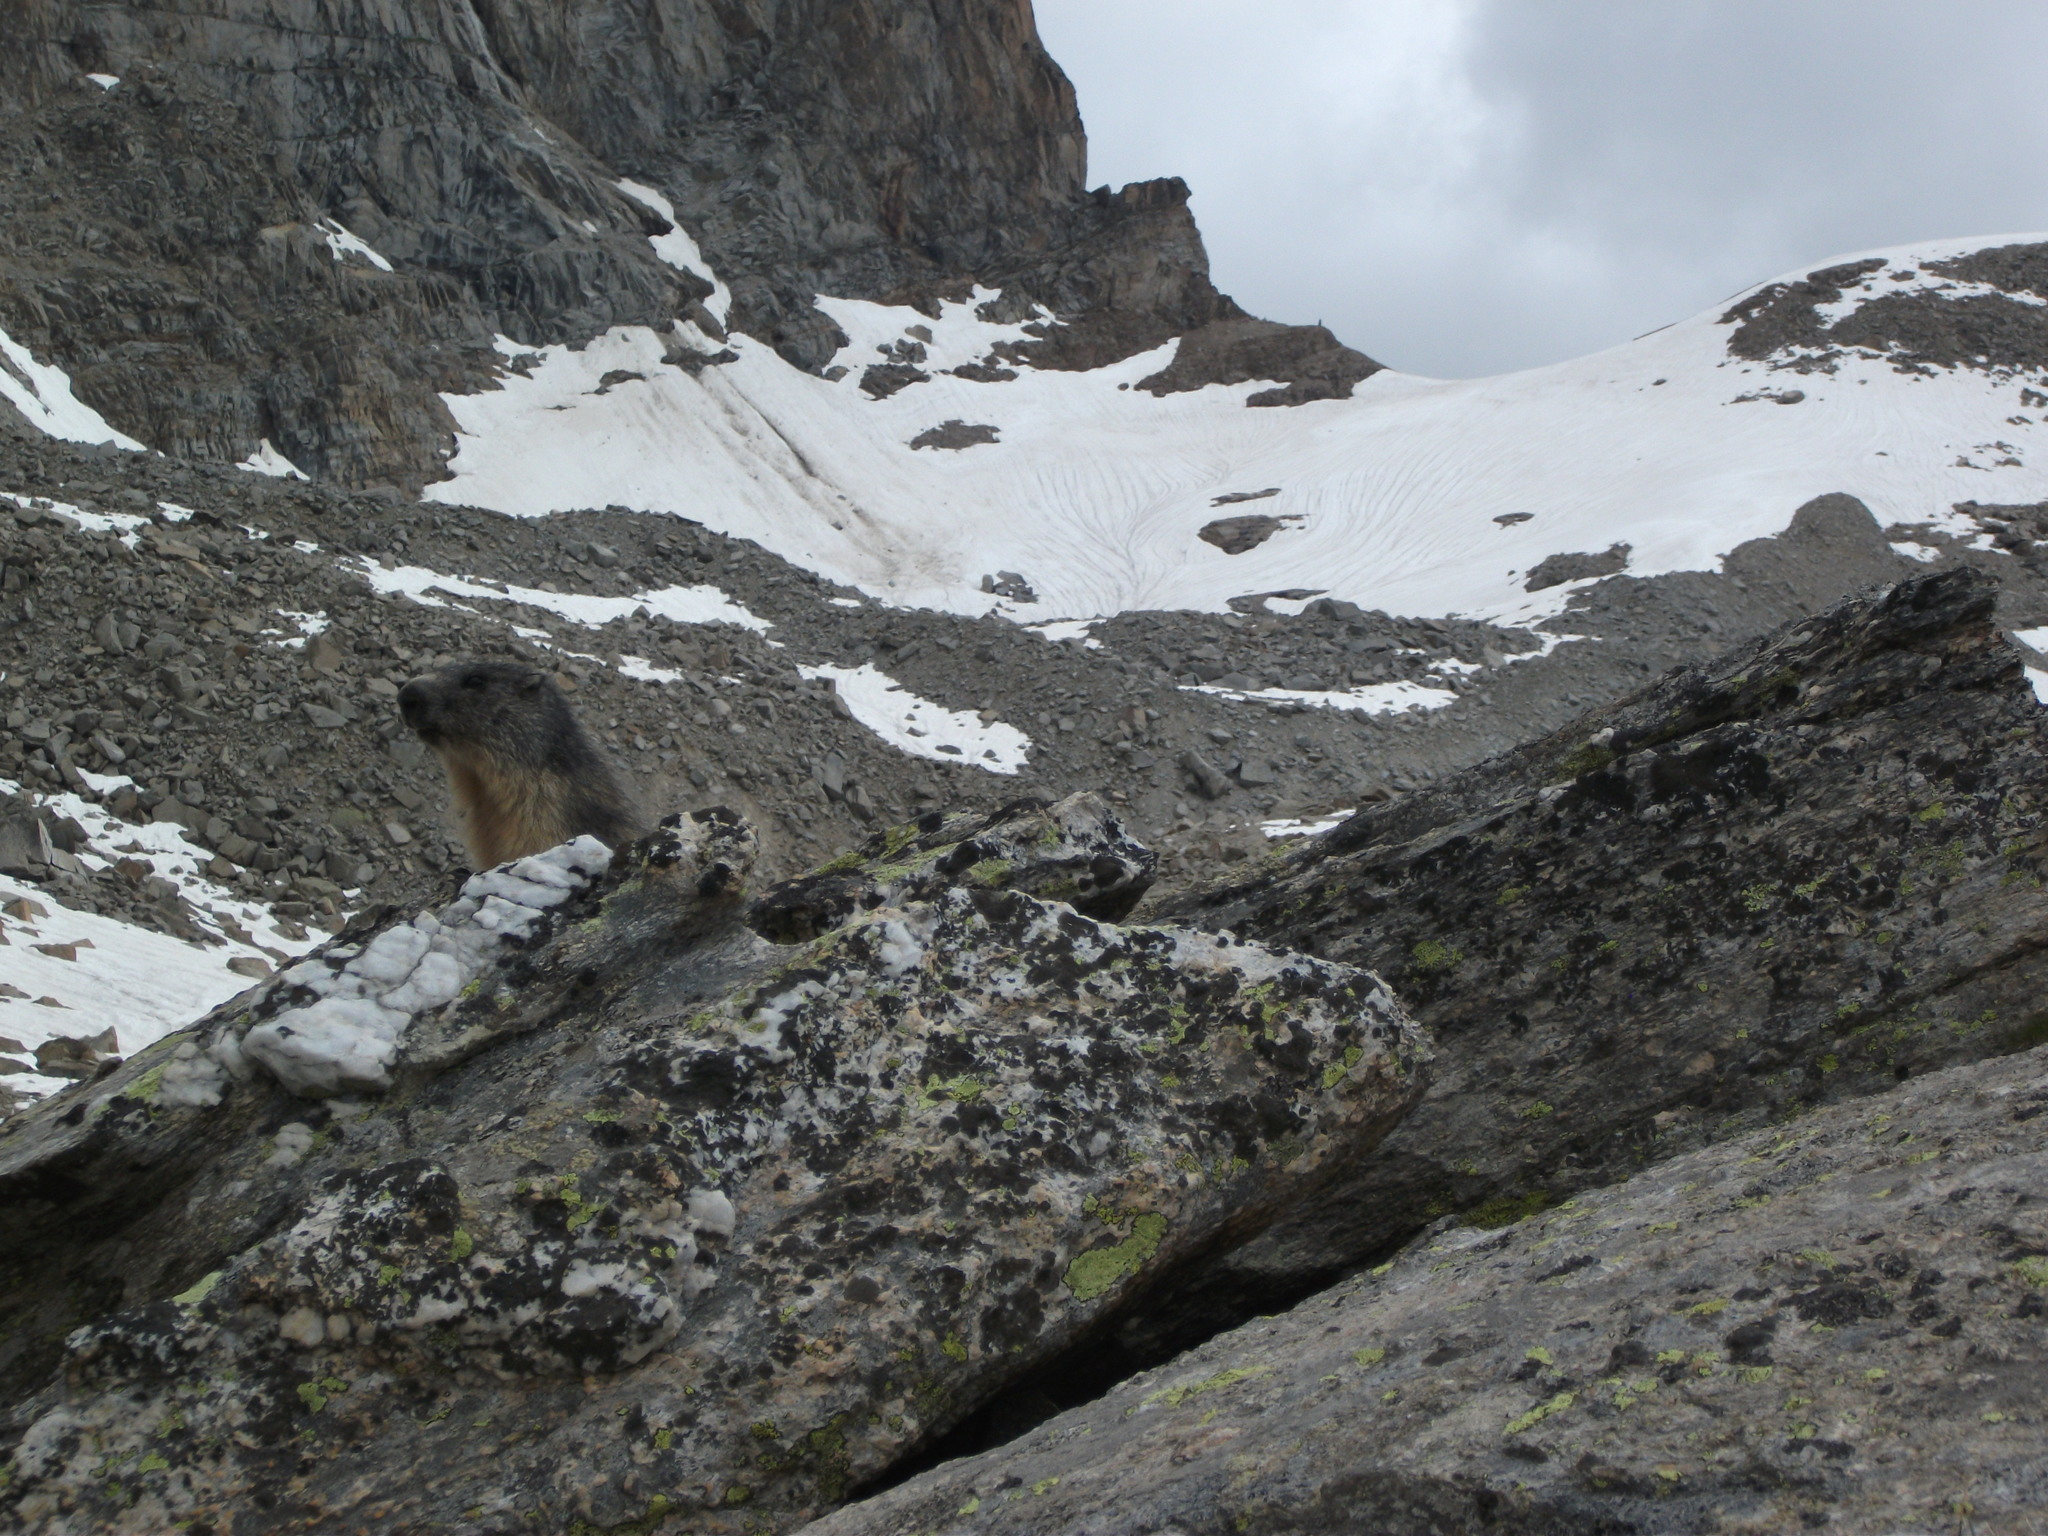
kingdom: Animalia
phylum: Chordata
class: Mammalia
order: Rodentia
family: Sciuridae
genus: Marmota
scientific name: Marmota marmota
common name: Alpine marmot
